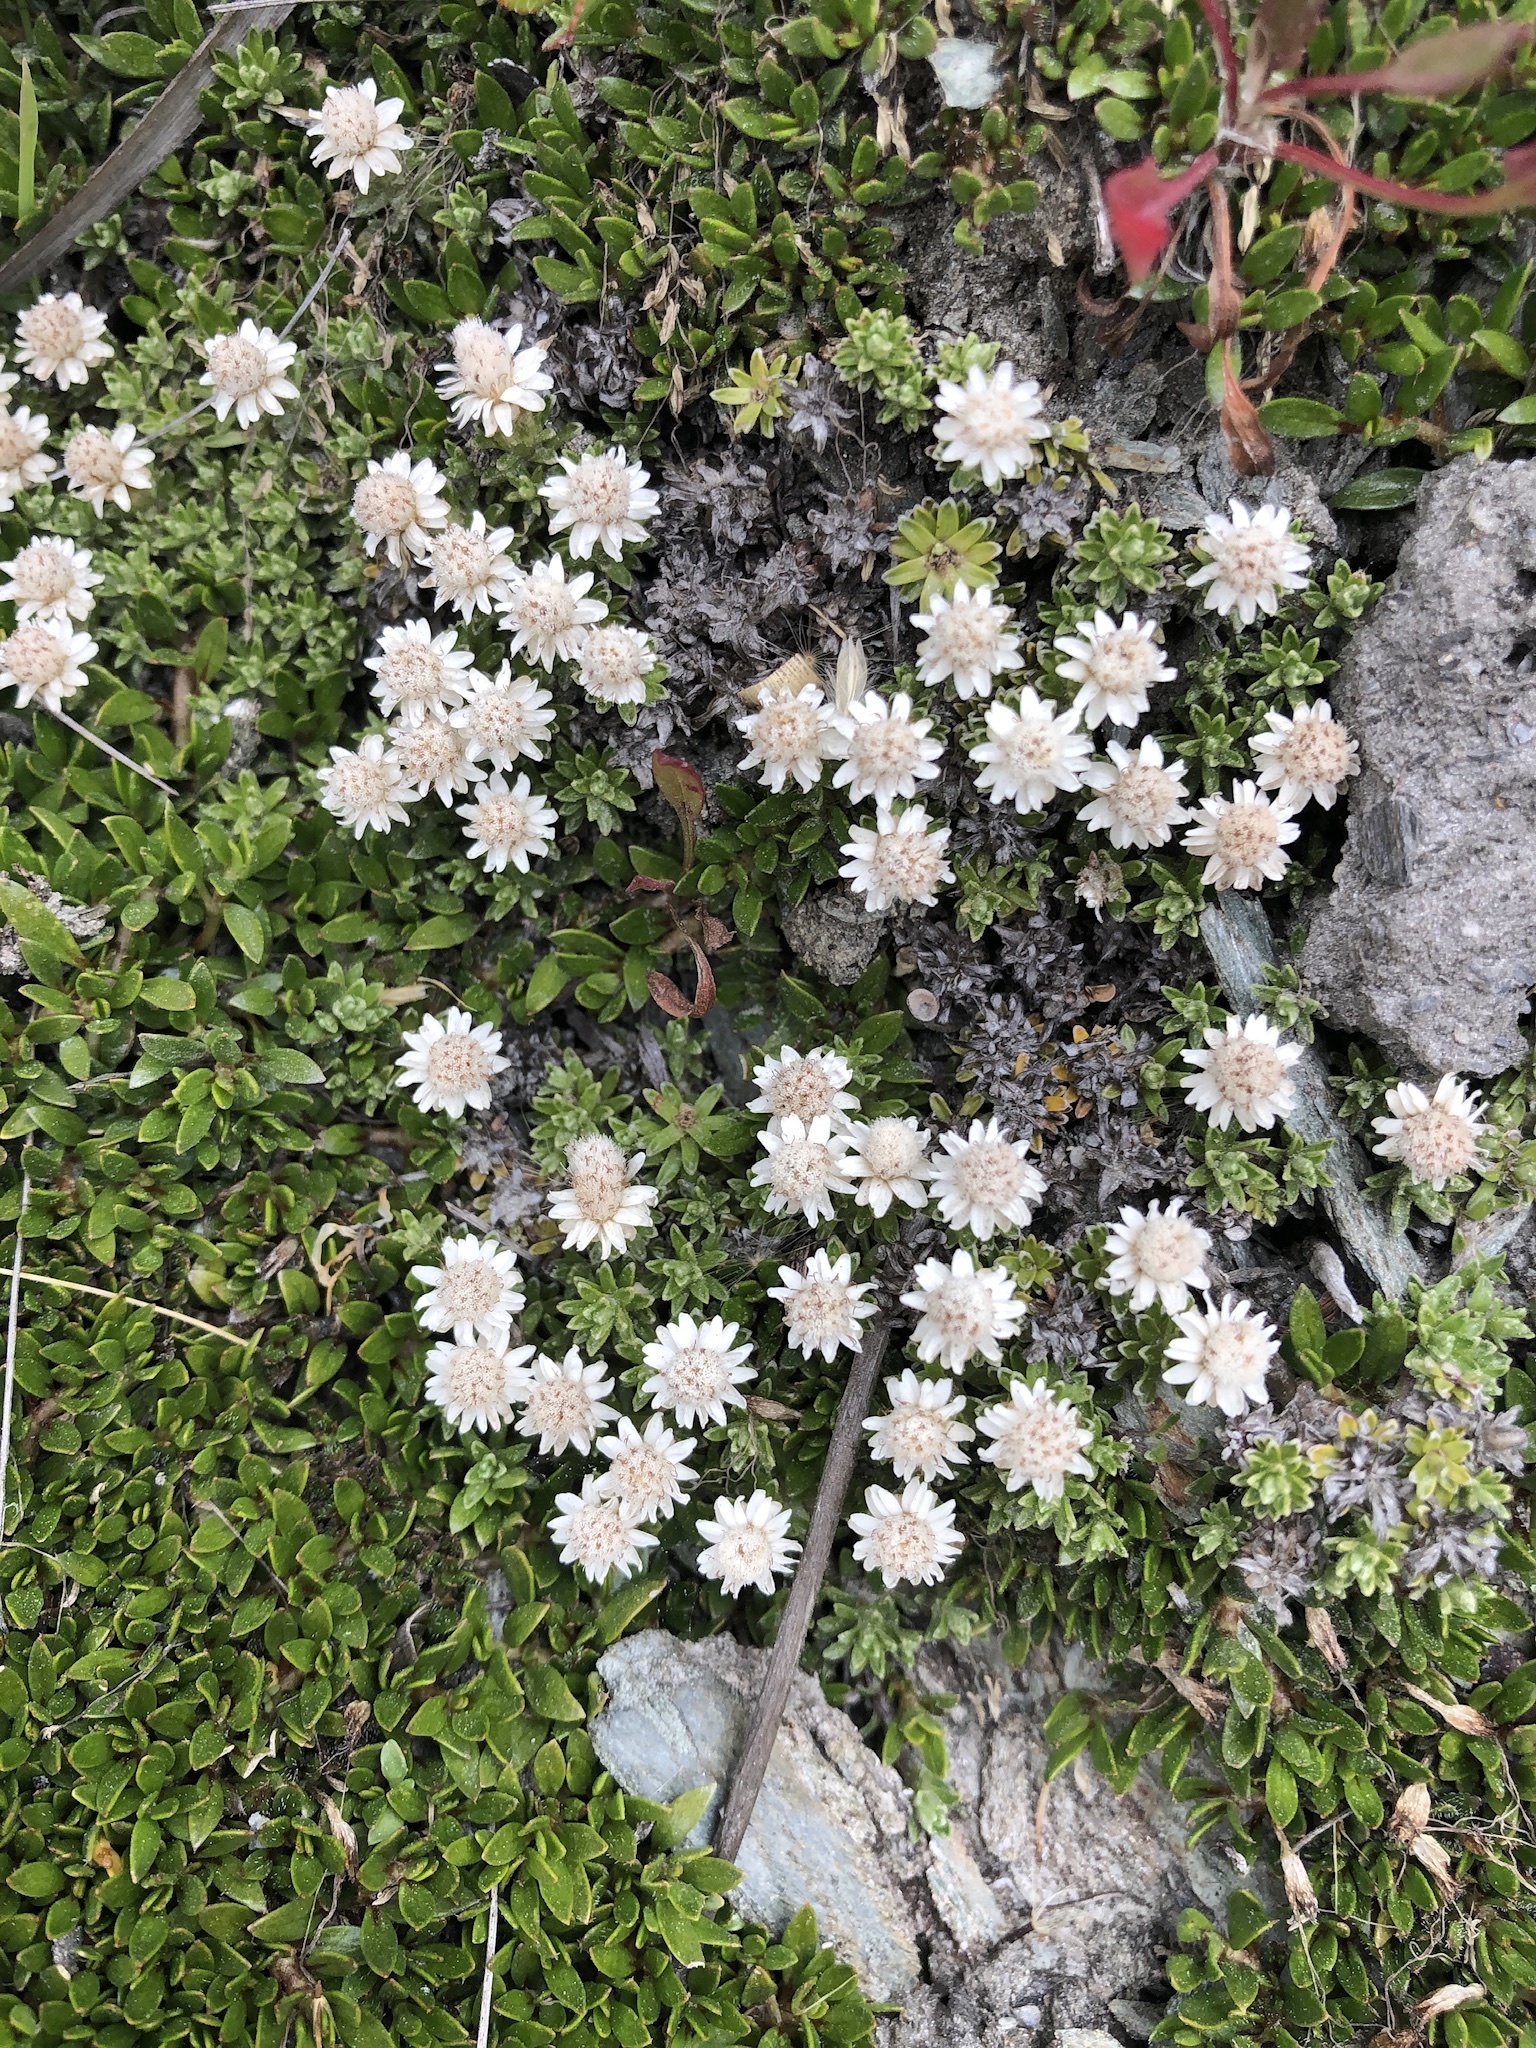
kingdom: Plantae
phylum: Tracheophyta
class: Magnoliopsida
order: Asterales
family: Asteraceae
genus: Raoulia
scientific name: Raoulia subsericea
